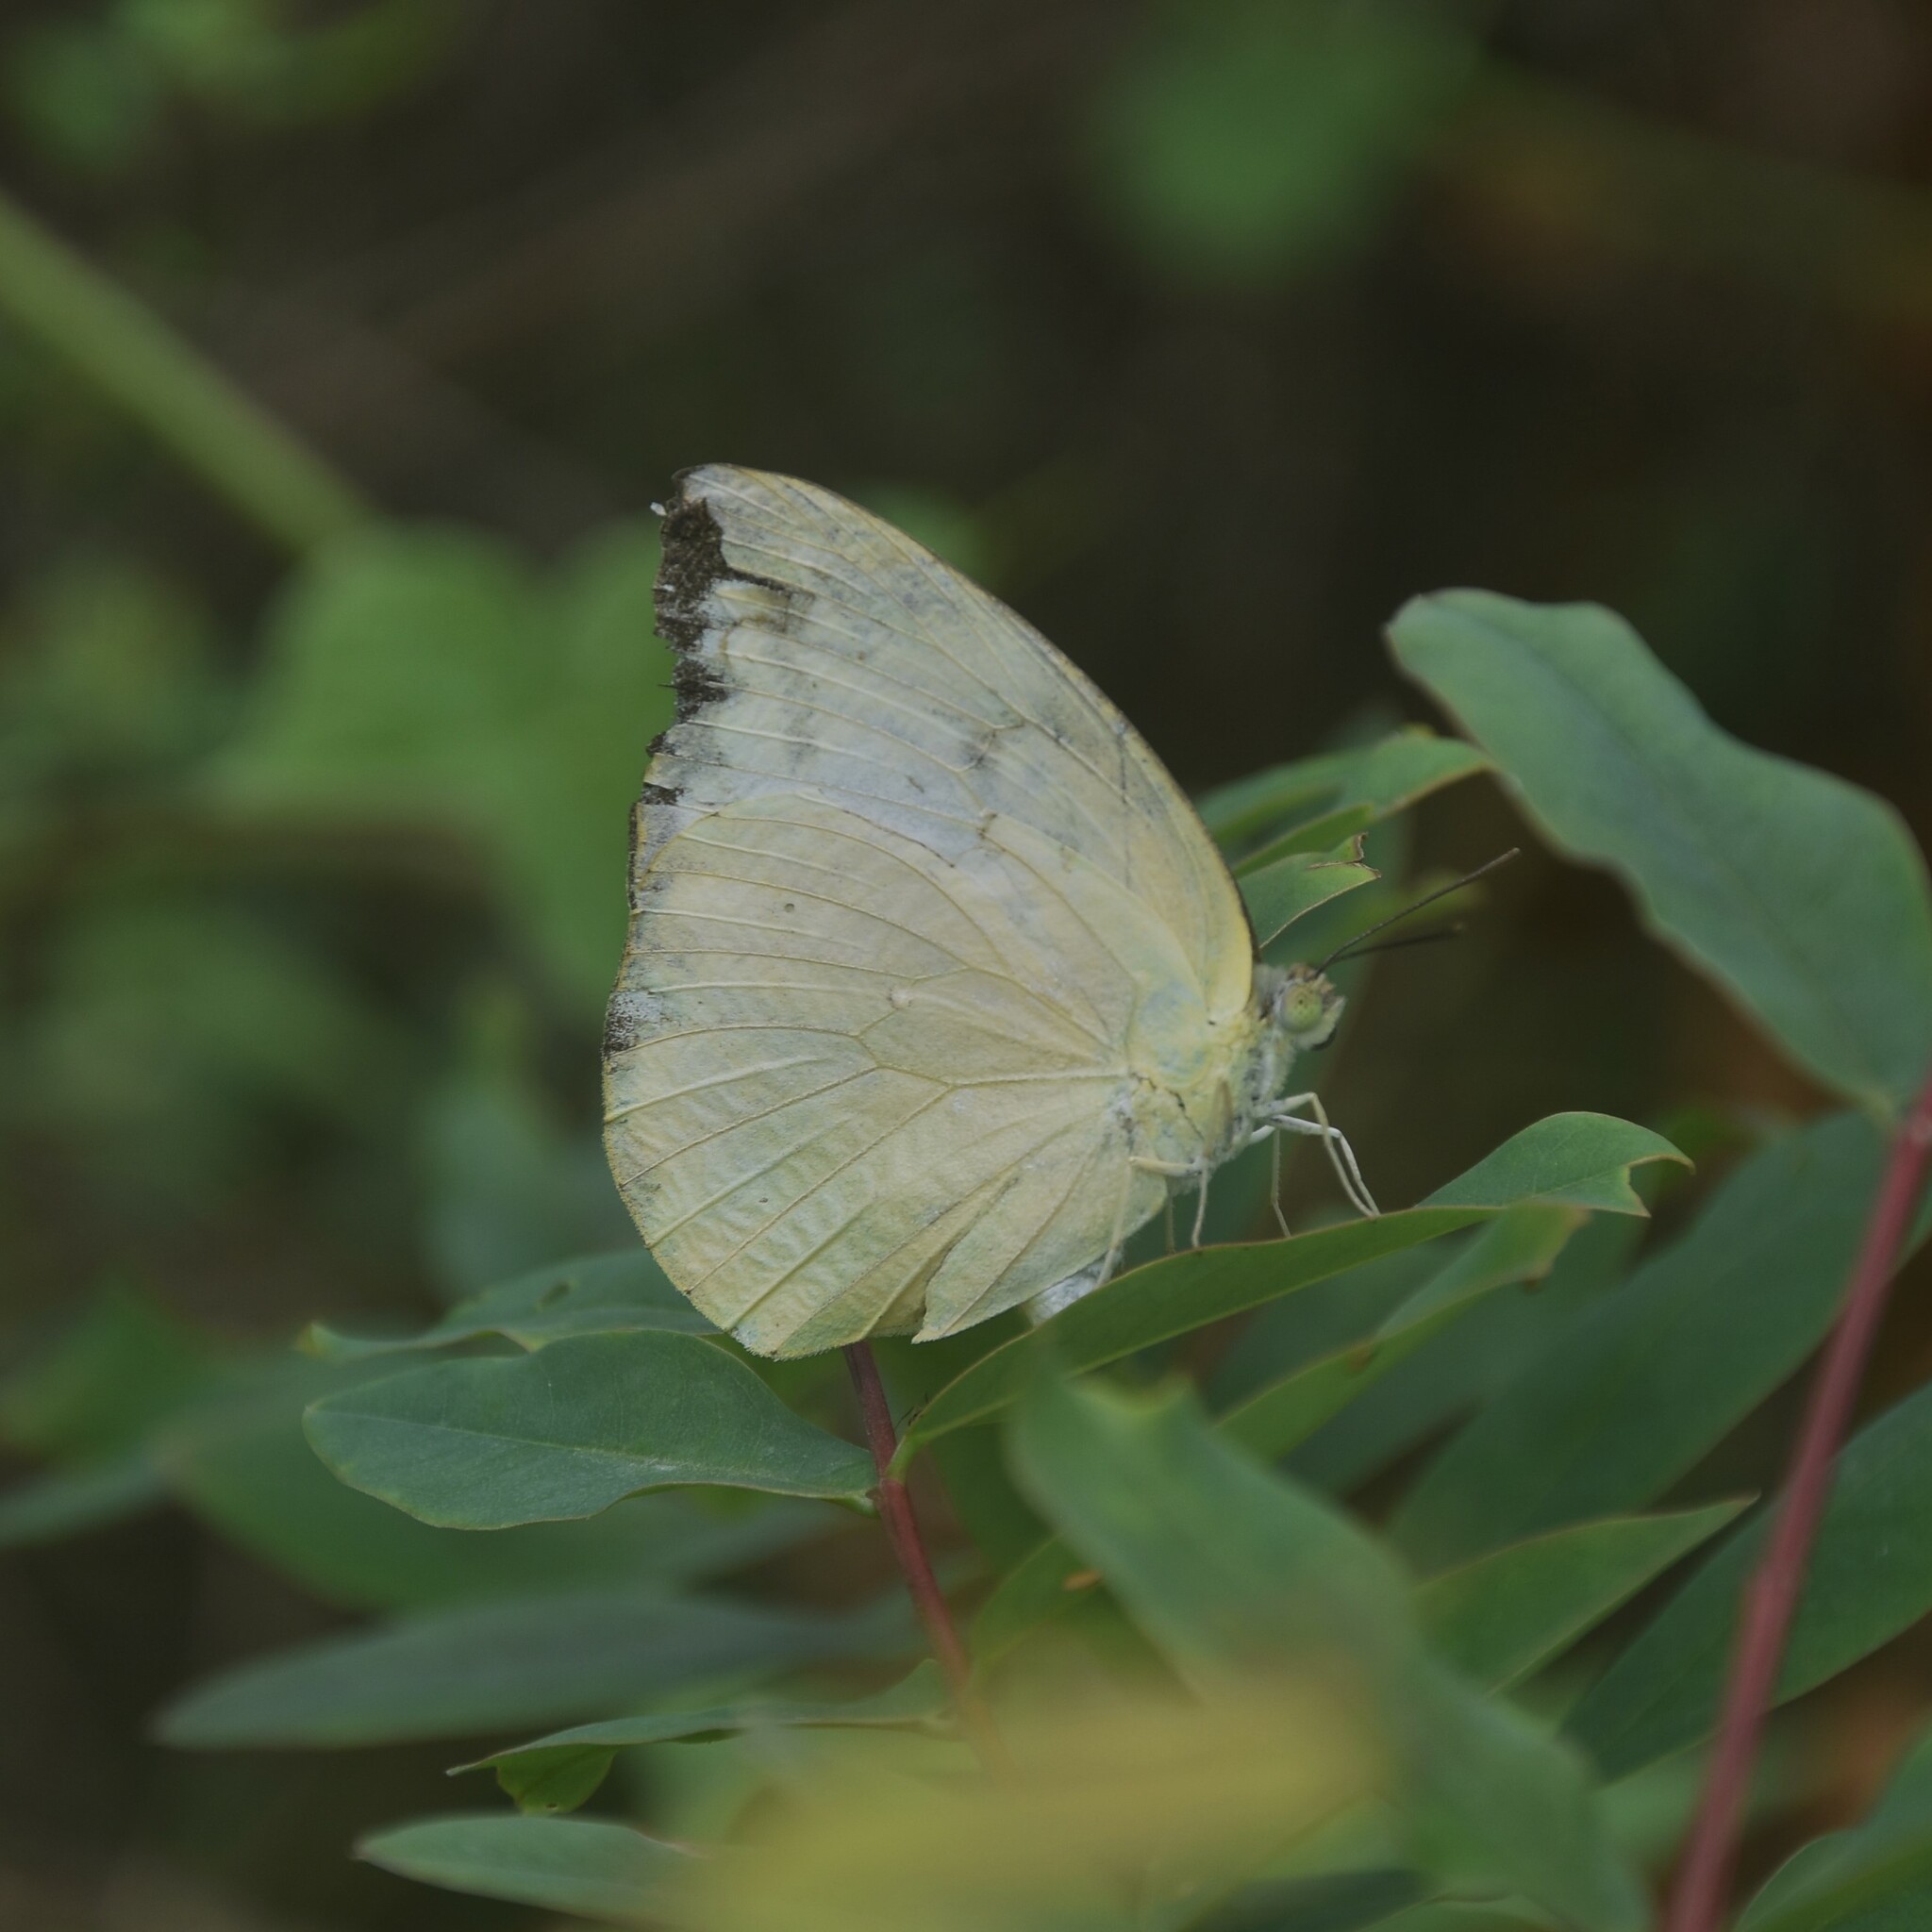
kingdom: Animalia
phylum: Arthropoda
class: Insecta
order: Lepidoptera
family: Pieridae
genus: Catopsilia
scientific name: Catopsilia pomona
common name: Common emigrant
